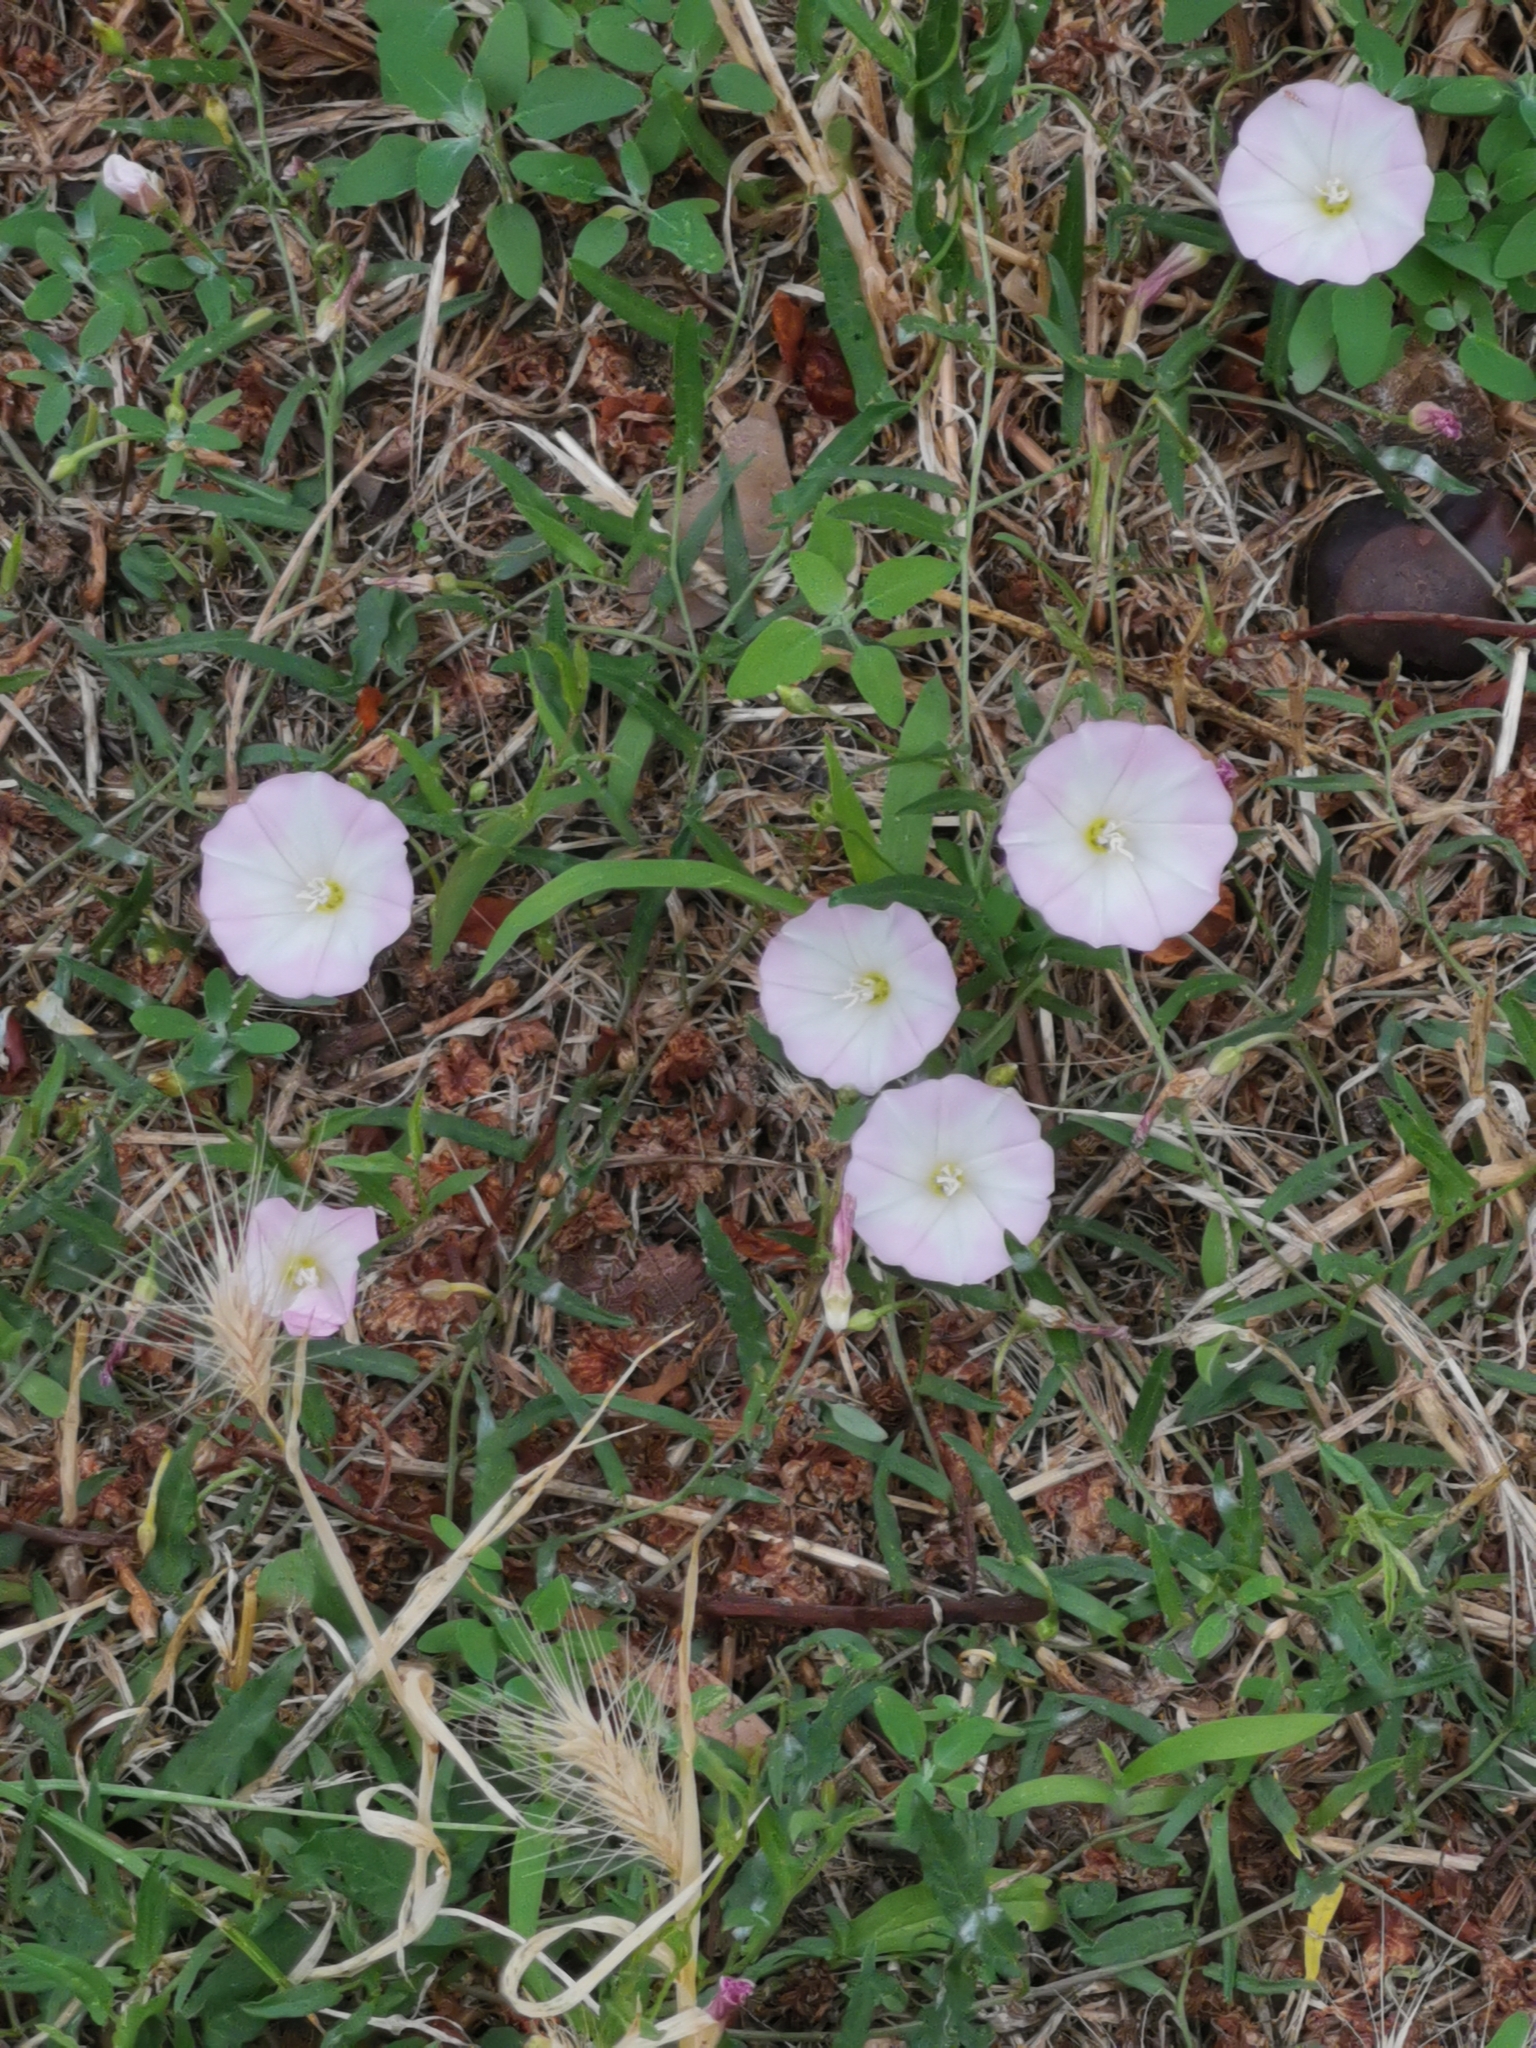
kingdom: Plantae
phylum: Tracheophyta
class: Magnoliopsida
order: Solanales
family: Convolvulaceae
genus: Convolvulus
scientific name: Convolvulus arvensis
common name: Field bindweed
